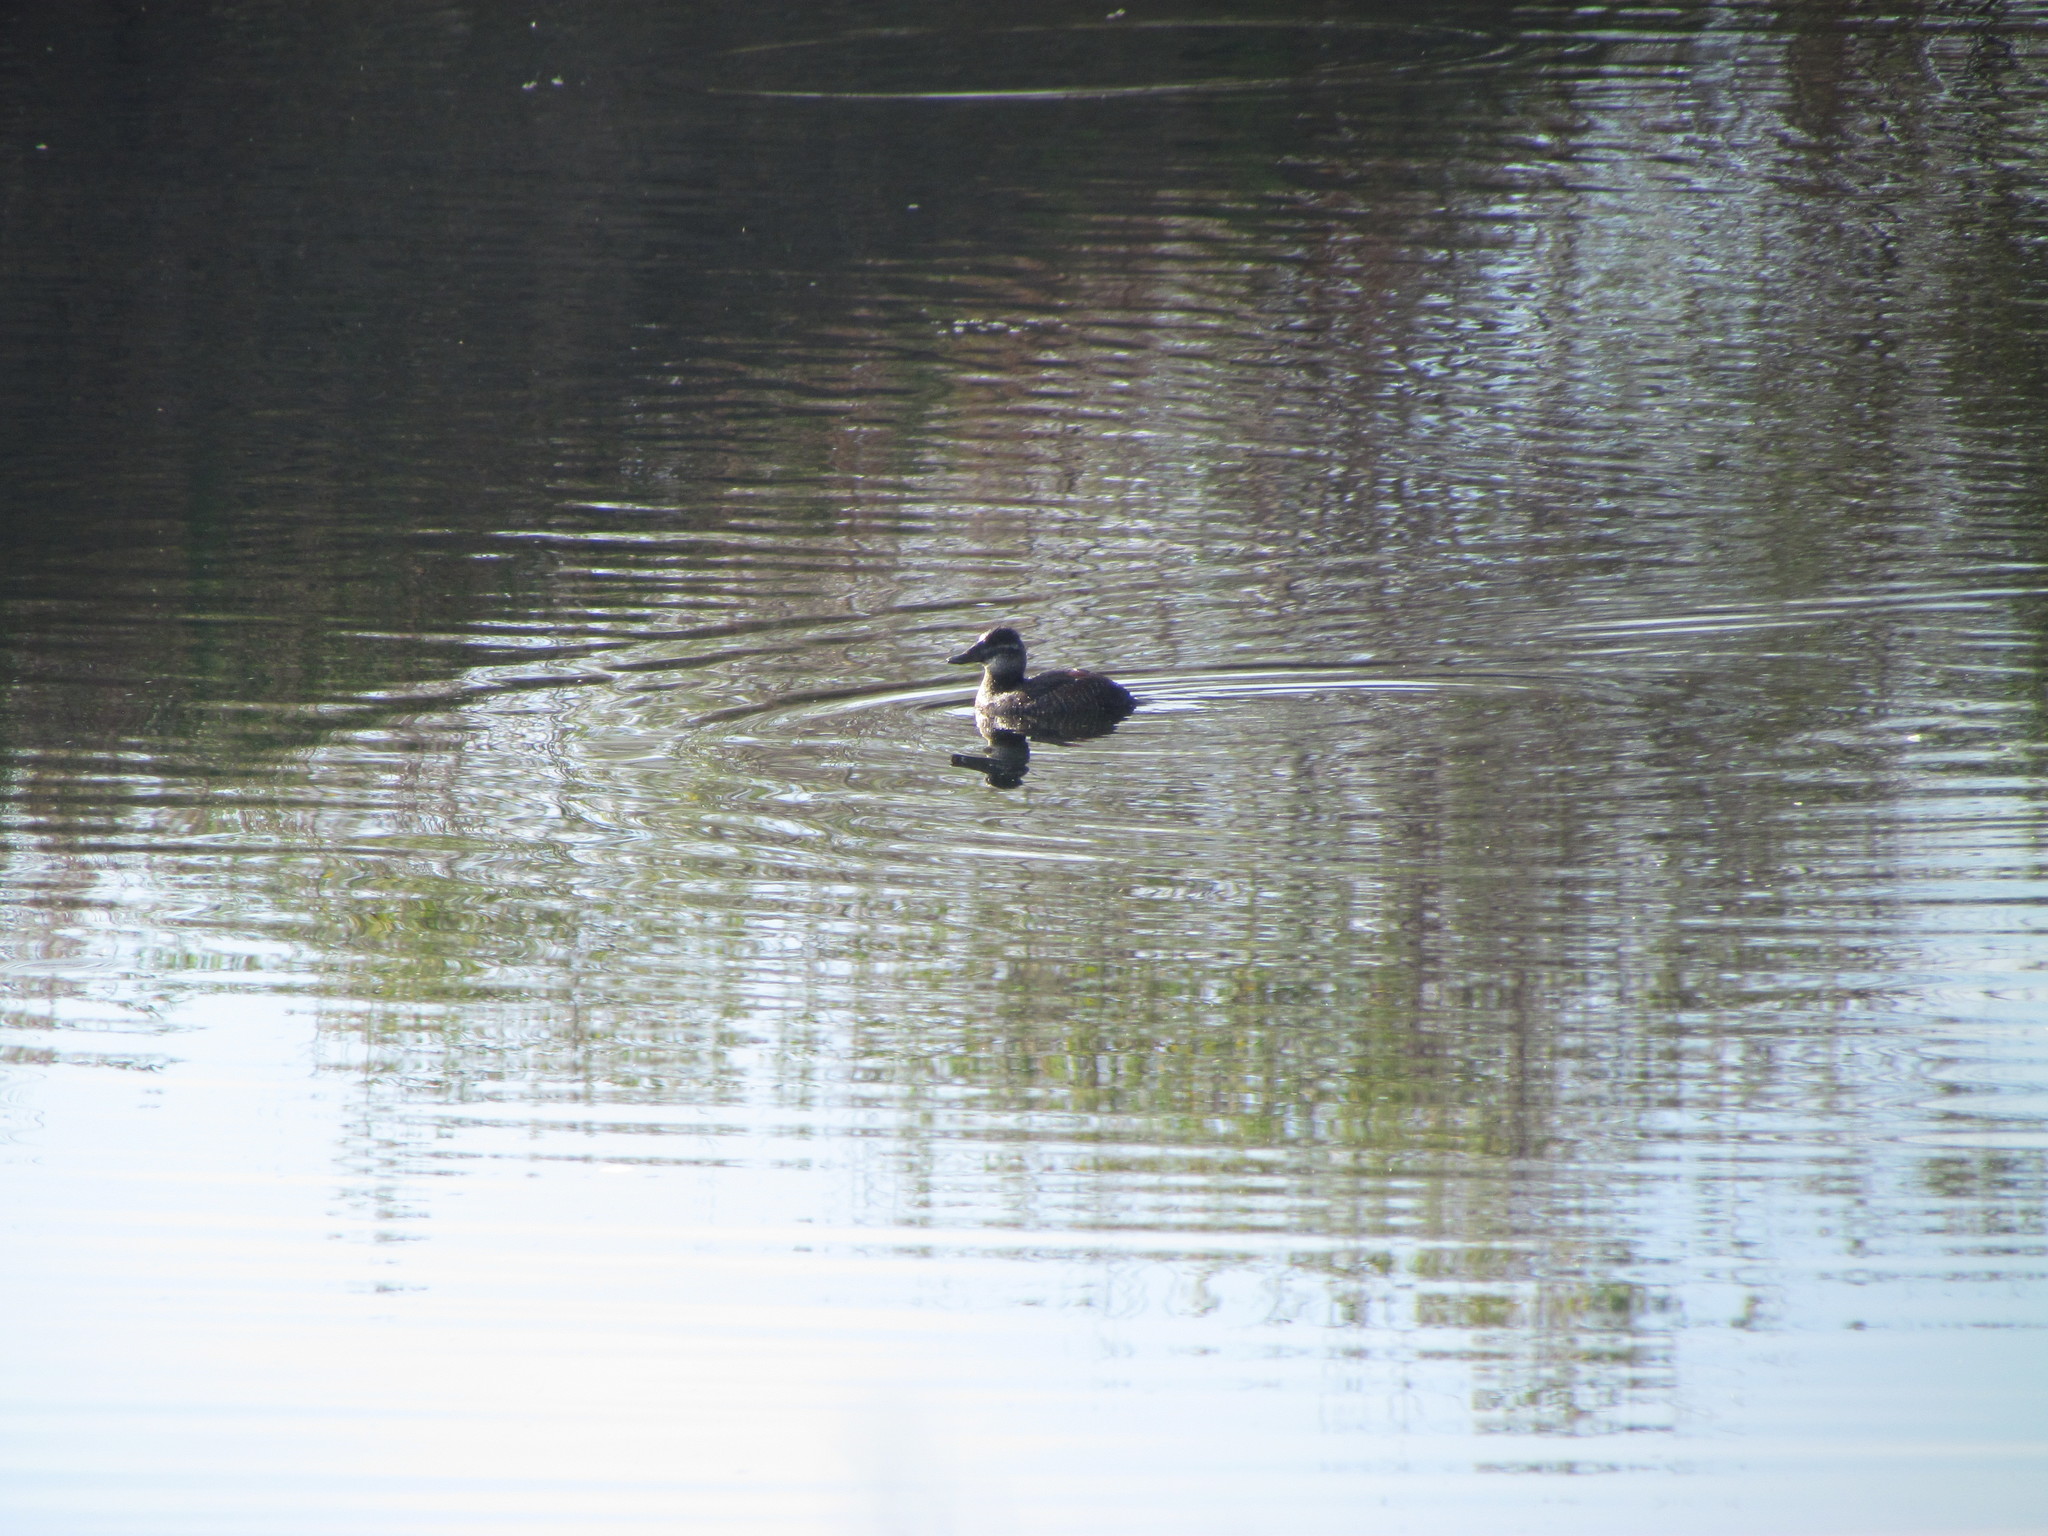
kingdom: Animalia
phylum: Chordata
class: Aves
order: Anseriformes
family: Anatidae
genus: Oxyura
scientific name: Oxyura vittata
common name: Lake duck
